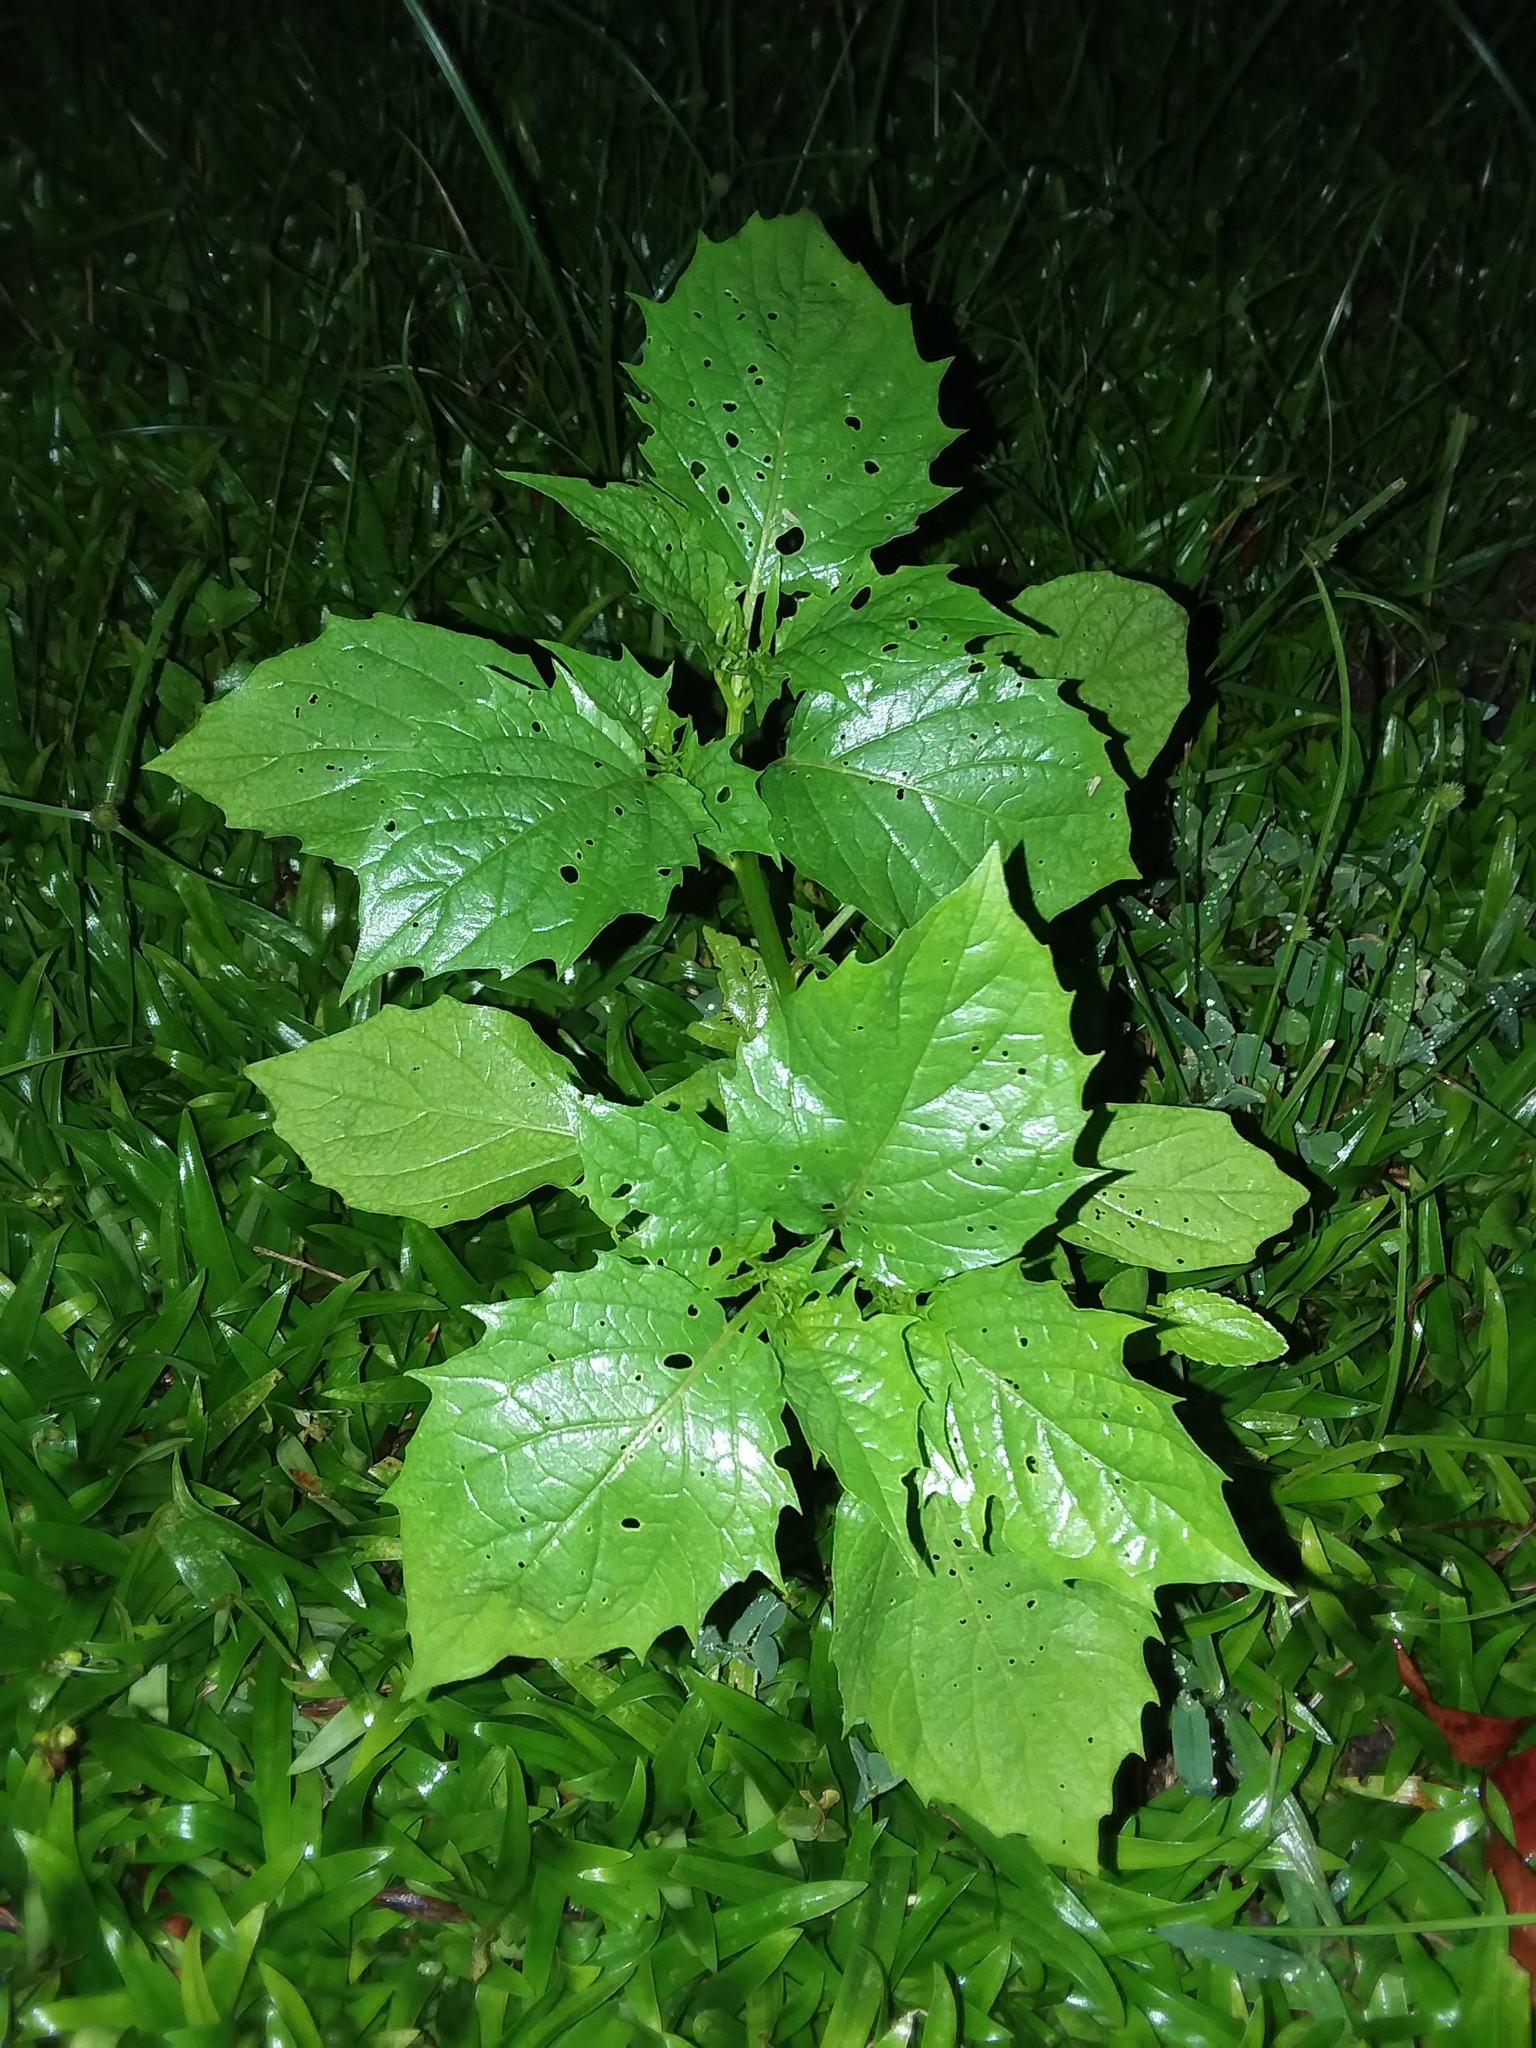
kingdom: Plantae
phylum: Tracheophyta
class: Magnoliopsida
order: Solanales
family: Solanaceae
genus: Physalis
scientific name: Physalis angulata
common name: Angular winter-cherry
